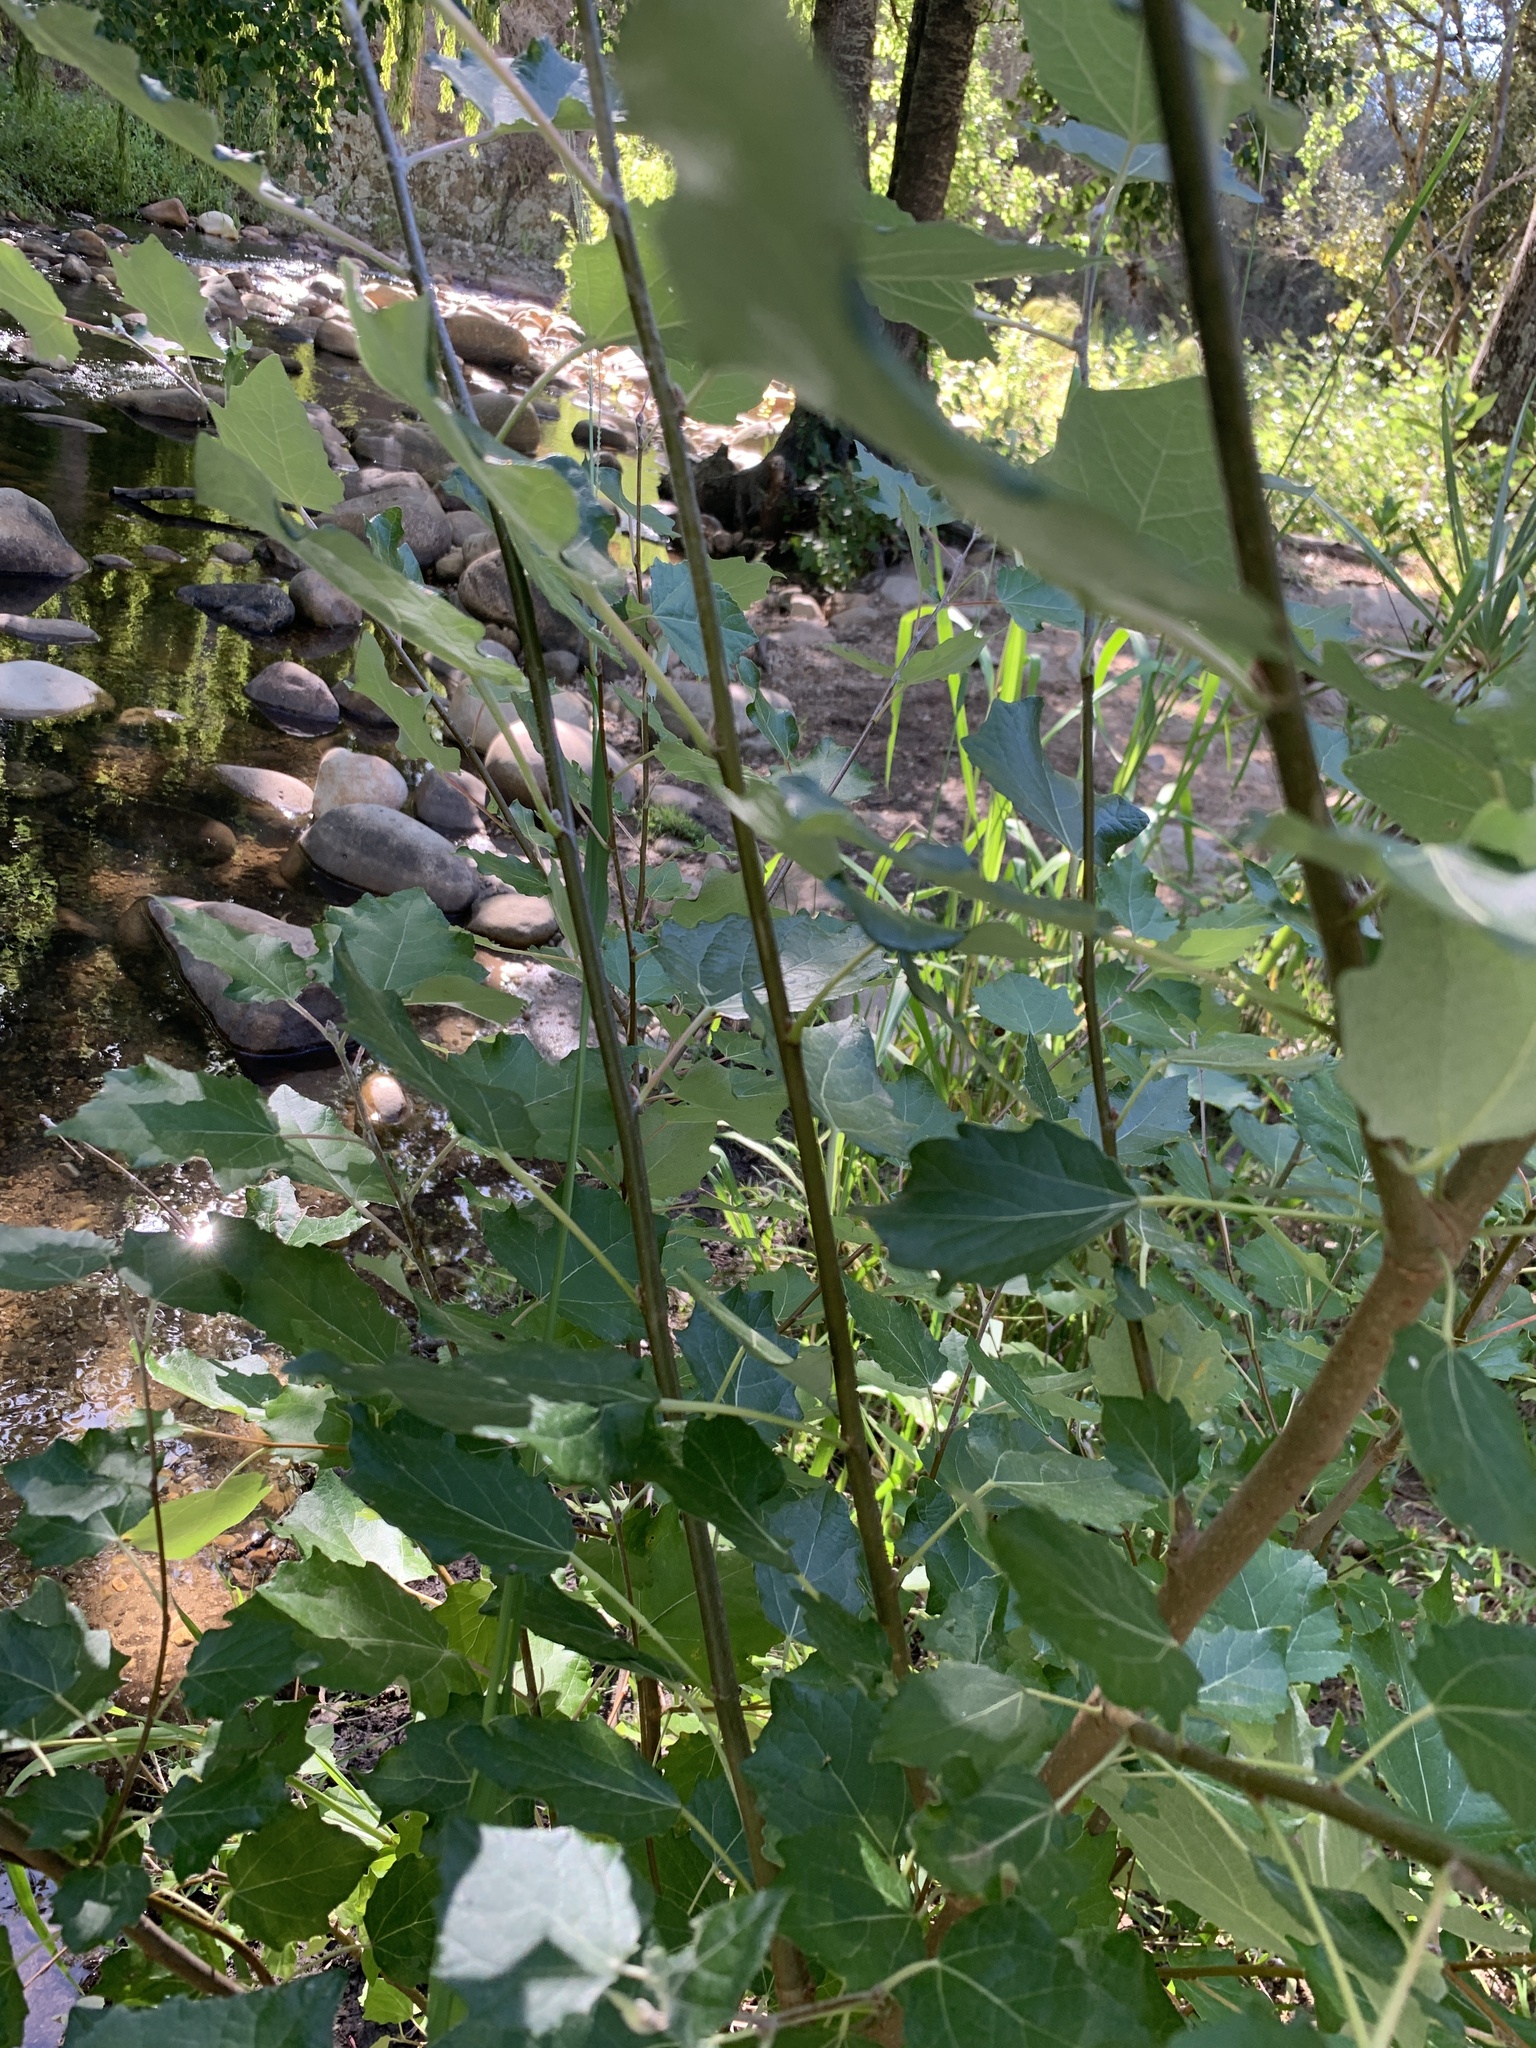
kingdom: Plantae
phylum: Tracheophyta
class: Magnoliopsida
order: Malpighiales
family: Salicaceae
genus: Populus
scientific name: Populus canescens
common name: Gray poplar
